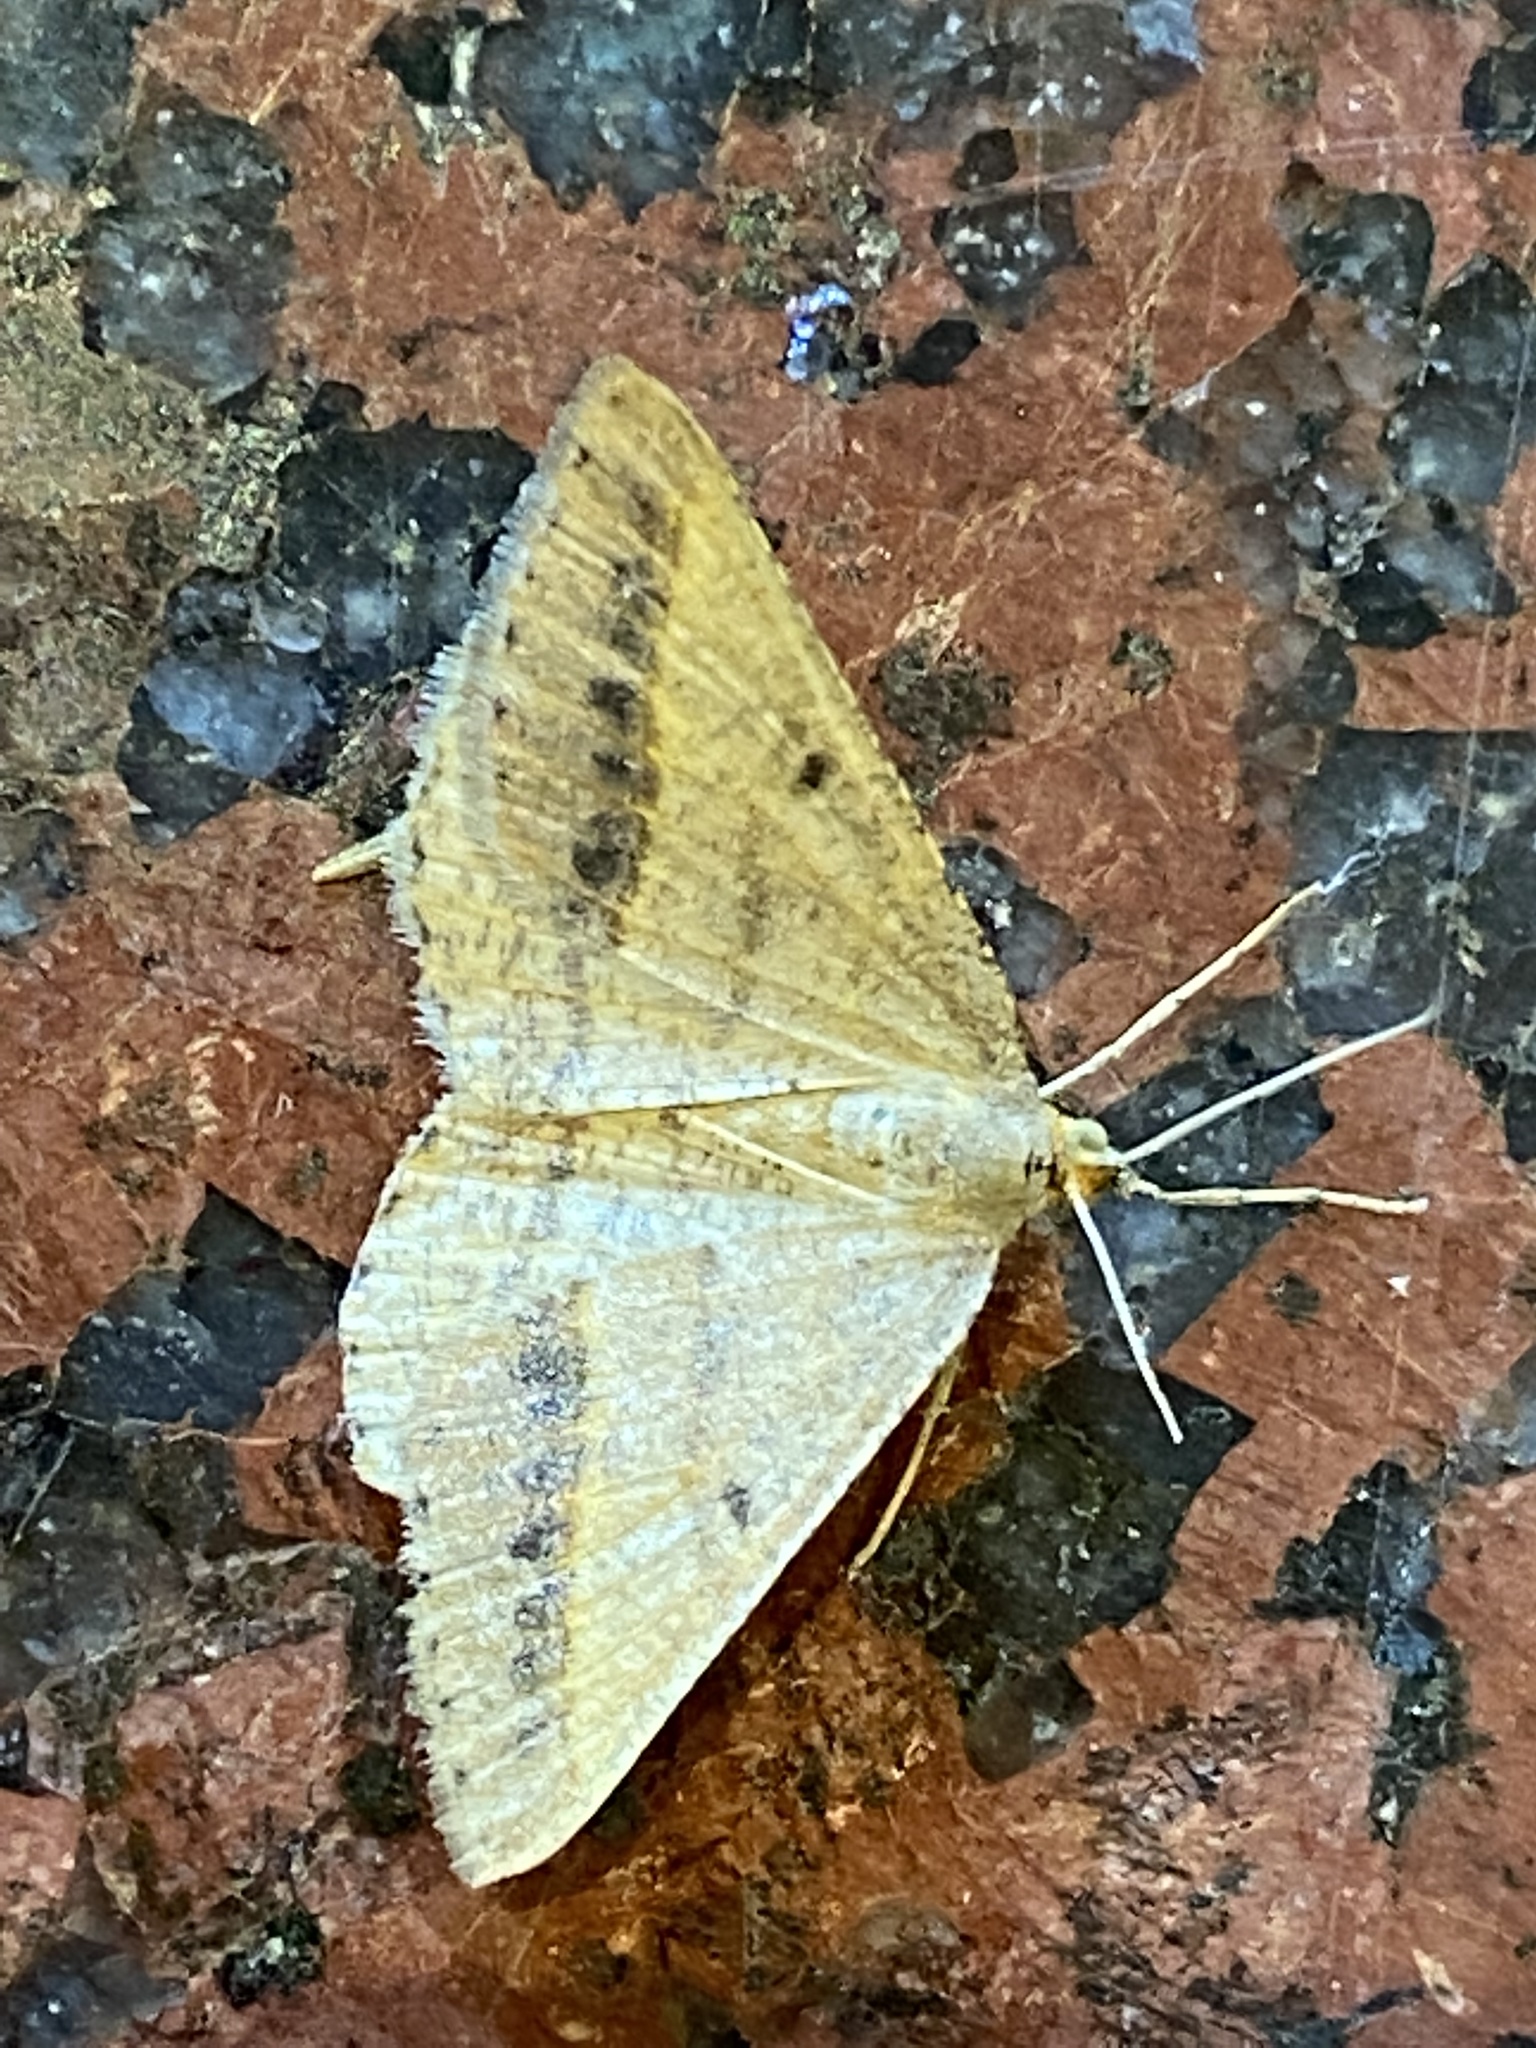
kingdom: Animalia
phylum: Arthropoda
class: Insecta
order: Lepidoptera
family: Geometridae
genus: Tephrina
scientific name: Tephrina arenacearia
